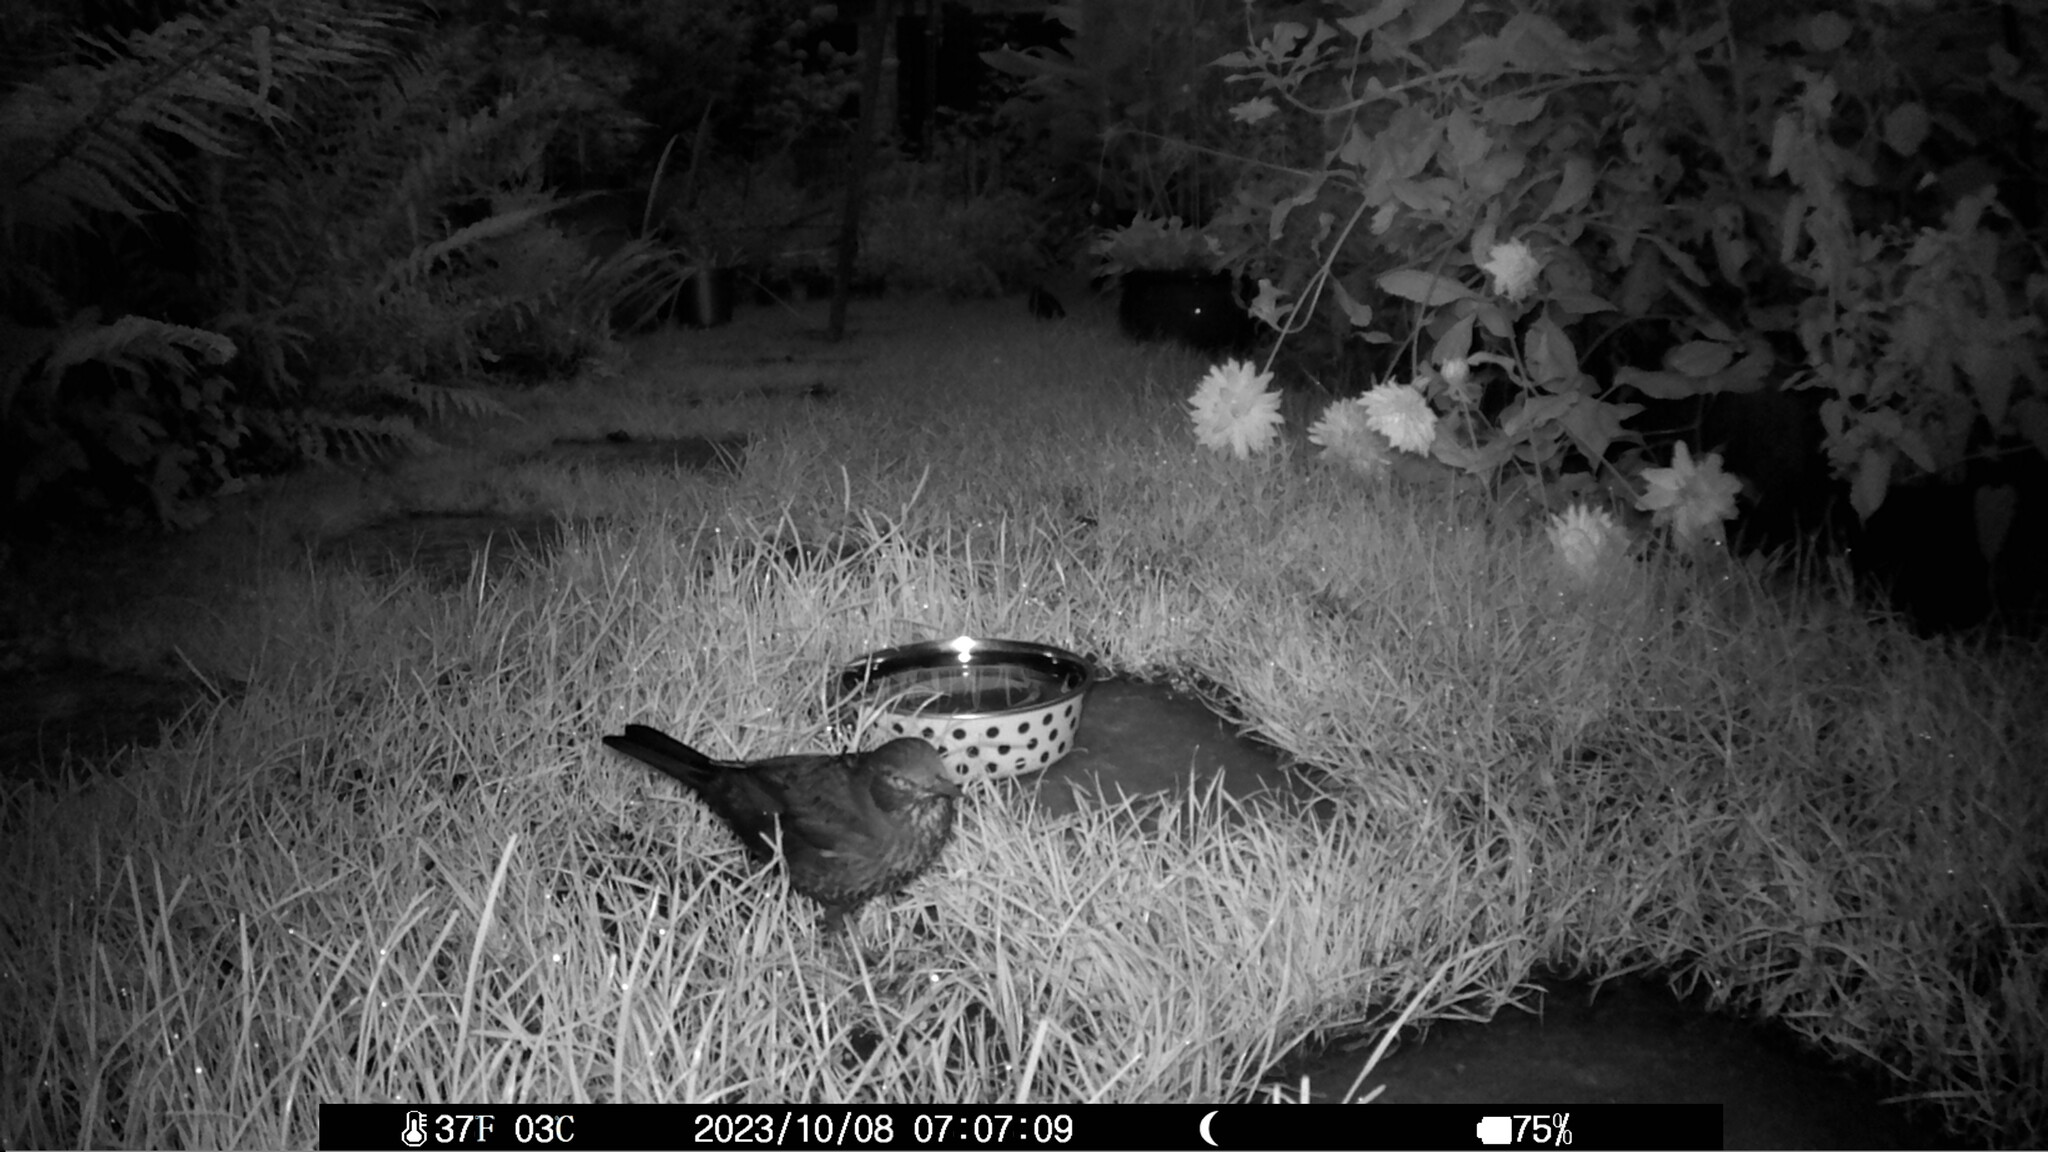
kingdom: Animalia
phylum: Chordata
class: Aves
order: Passeriformes
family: Turdidae
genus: Turdus
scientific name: Turdus merula
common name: Common blackbird
